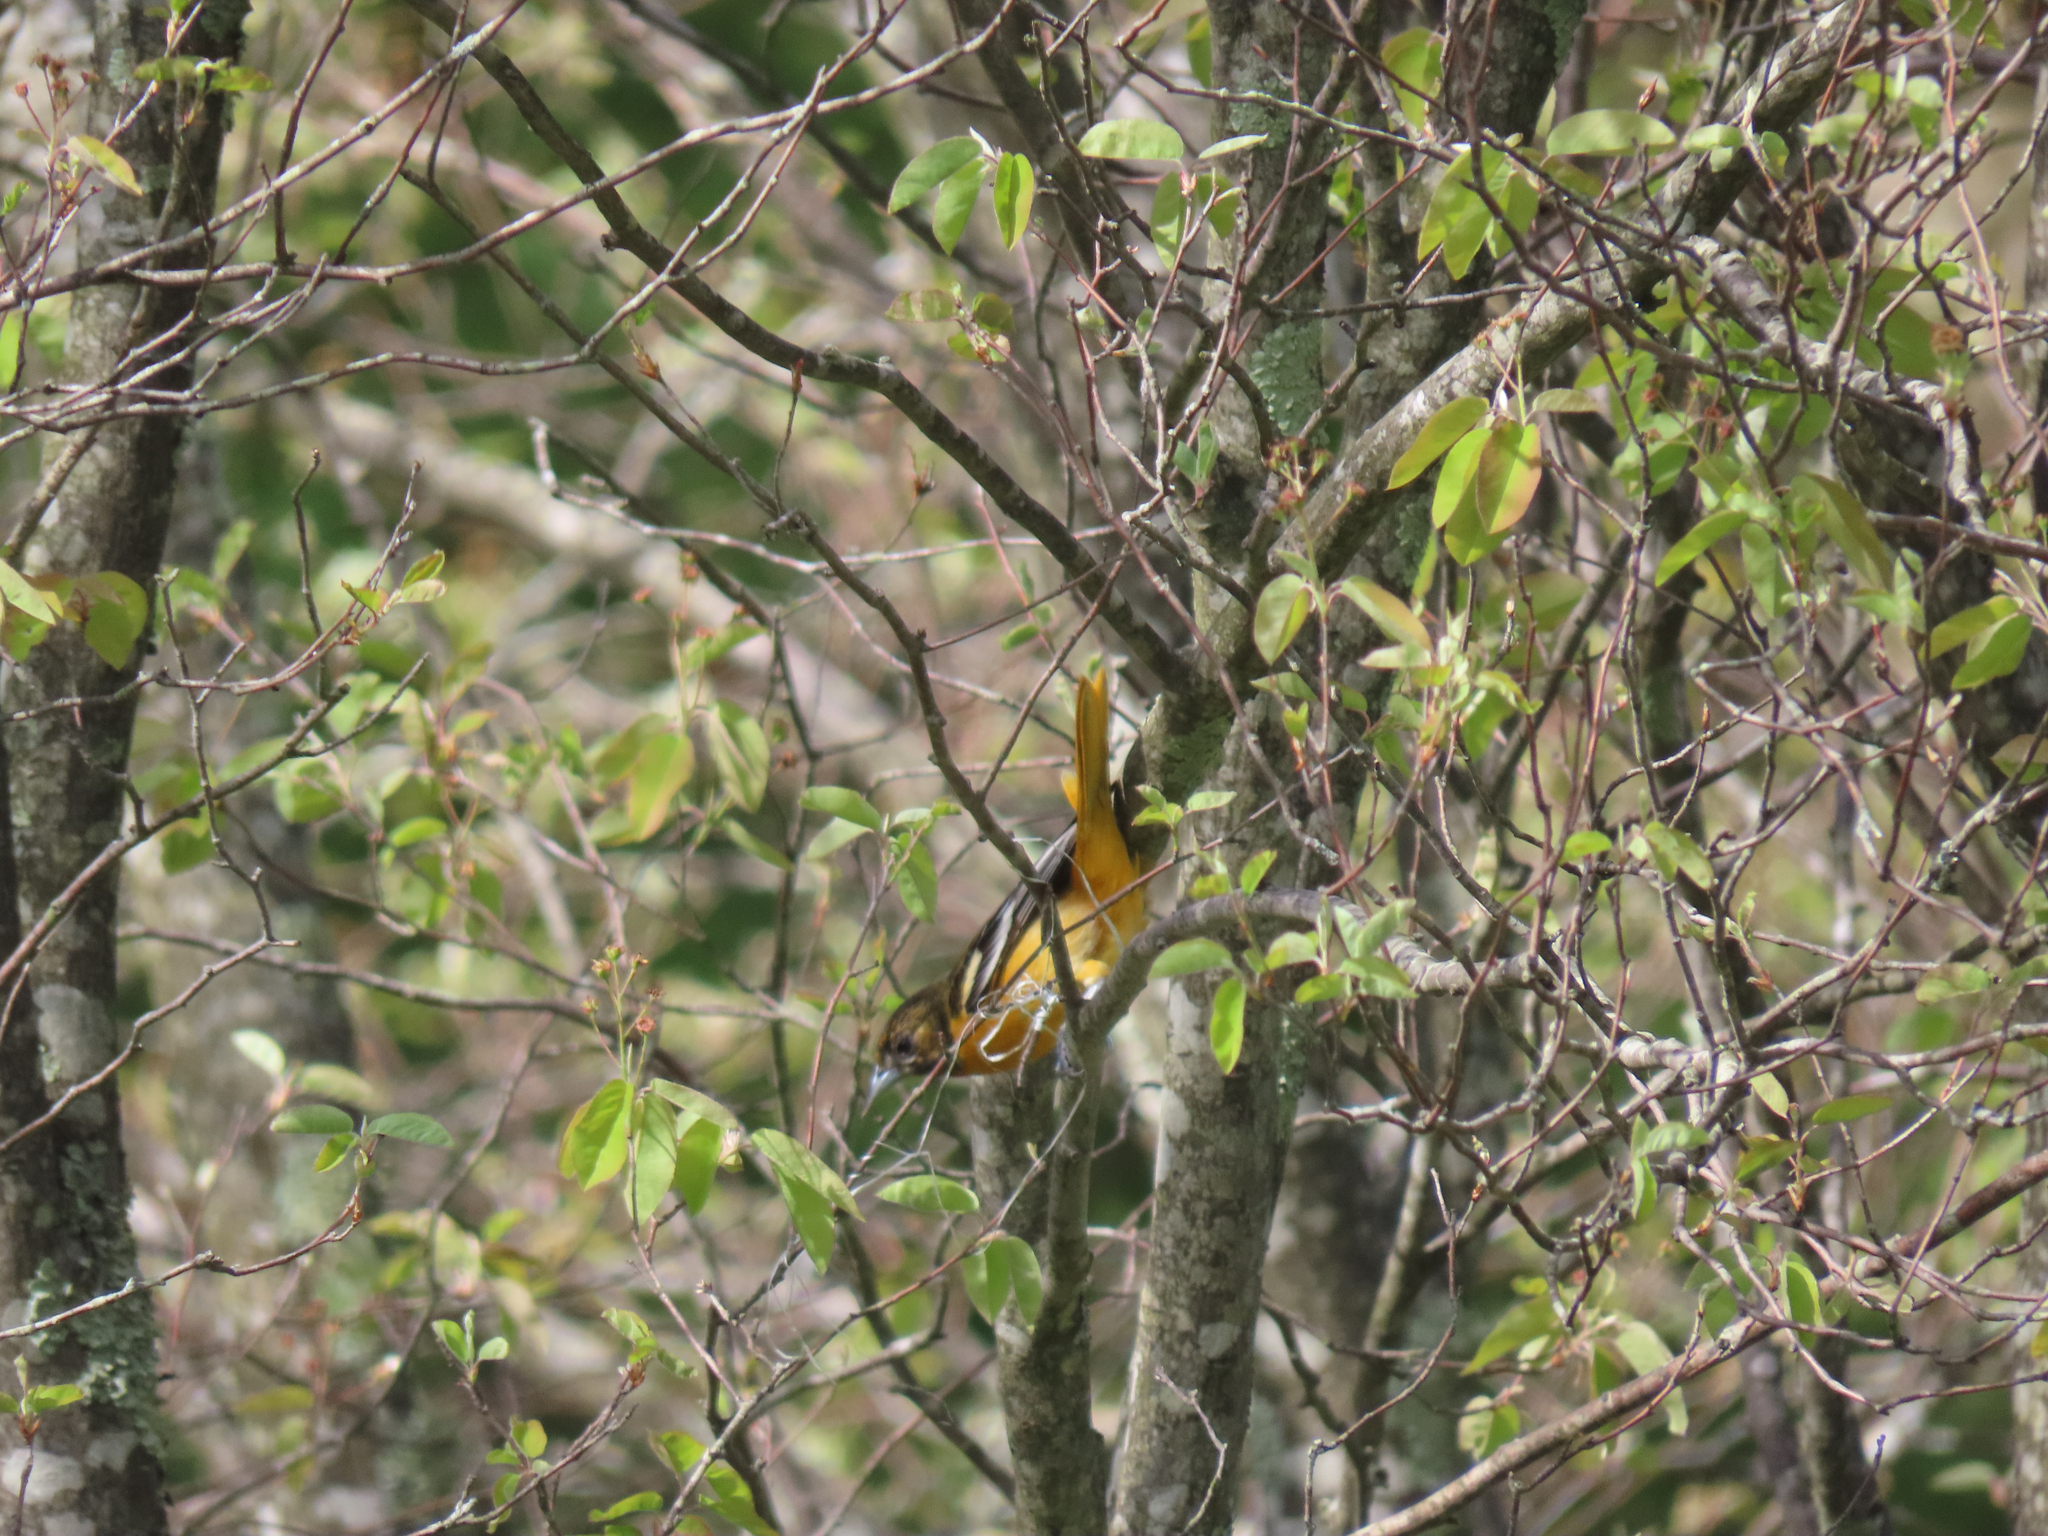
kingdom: Animalia
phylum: Chordata
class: Aves
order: Passeriformes
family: Icteridae
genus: Icterus
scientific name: Icterus galbula
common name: Baltimore oriole
